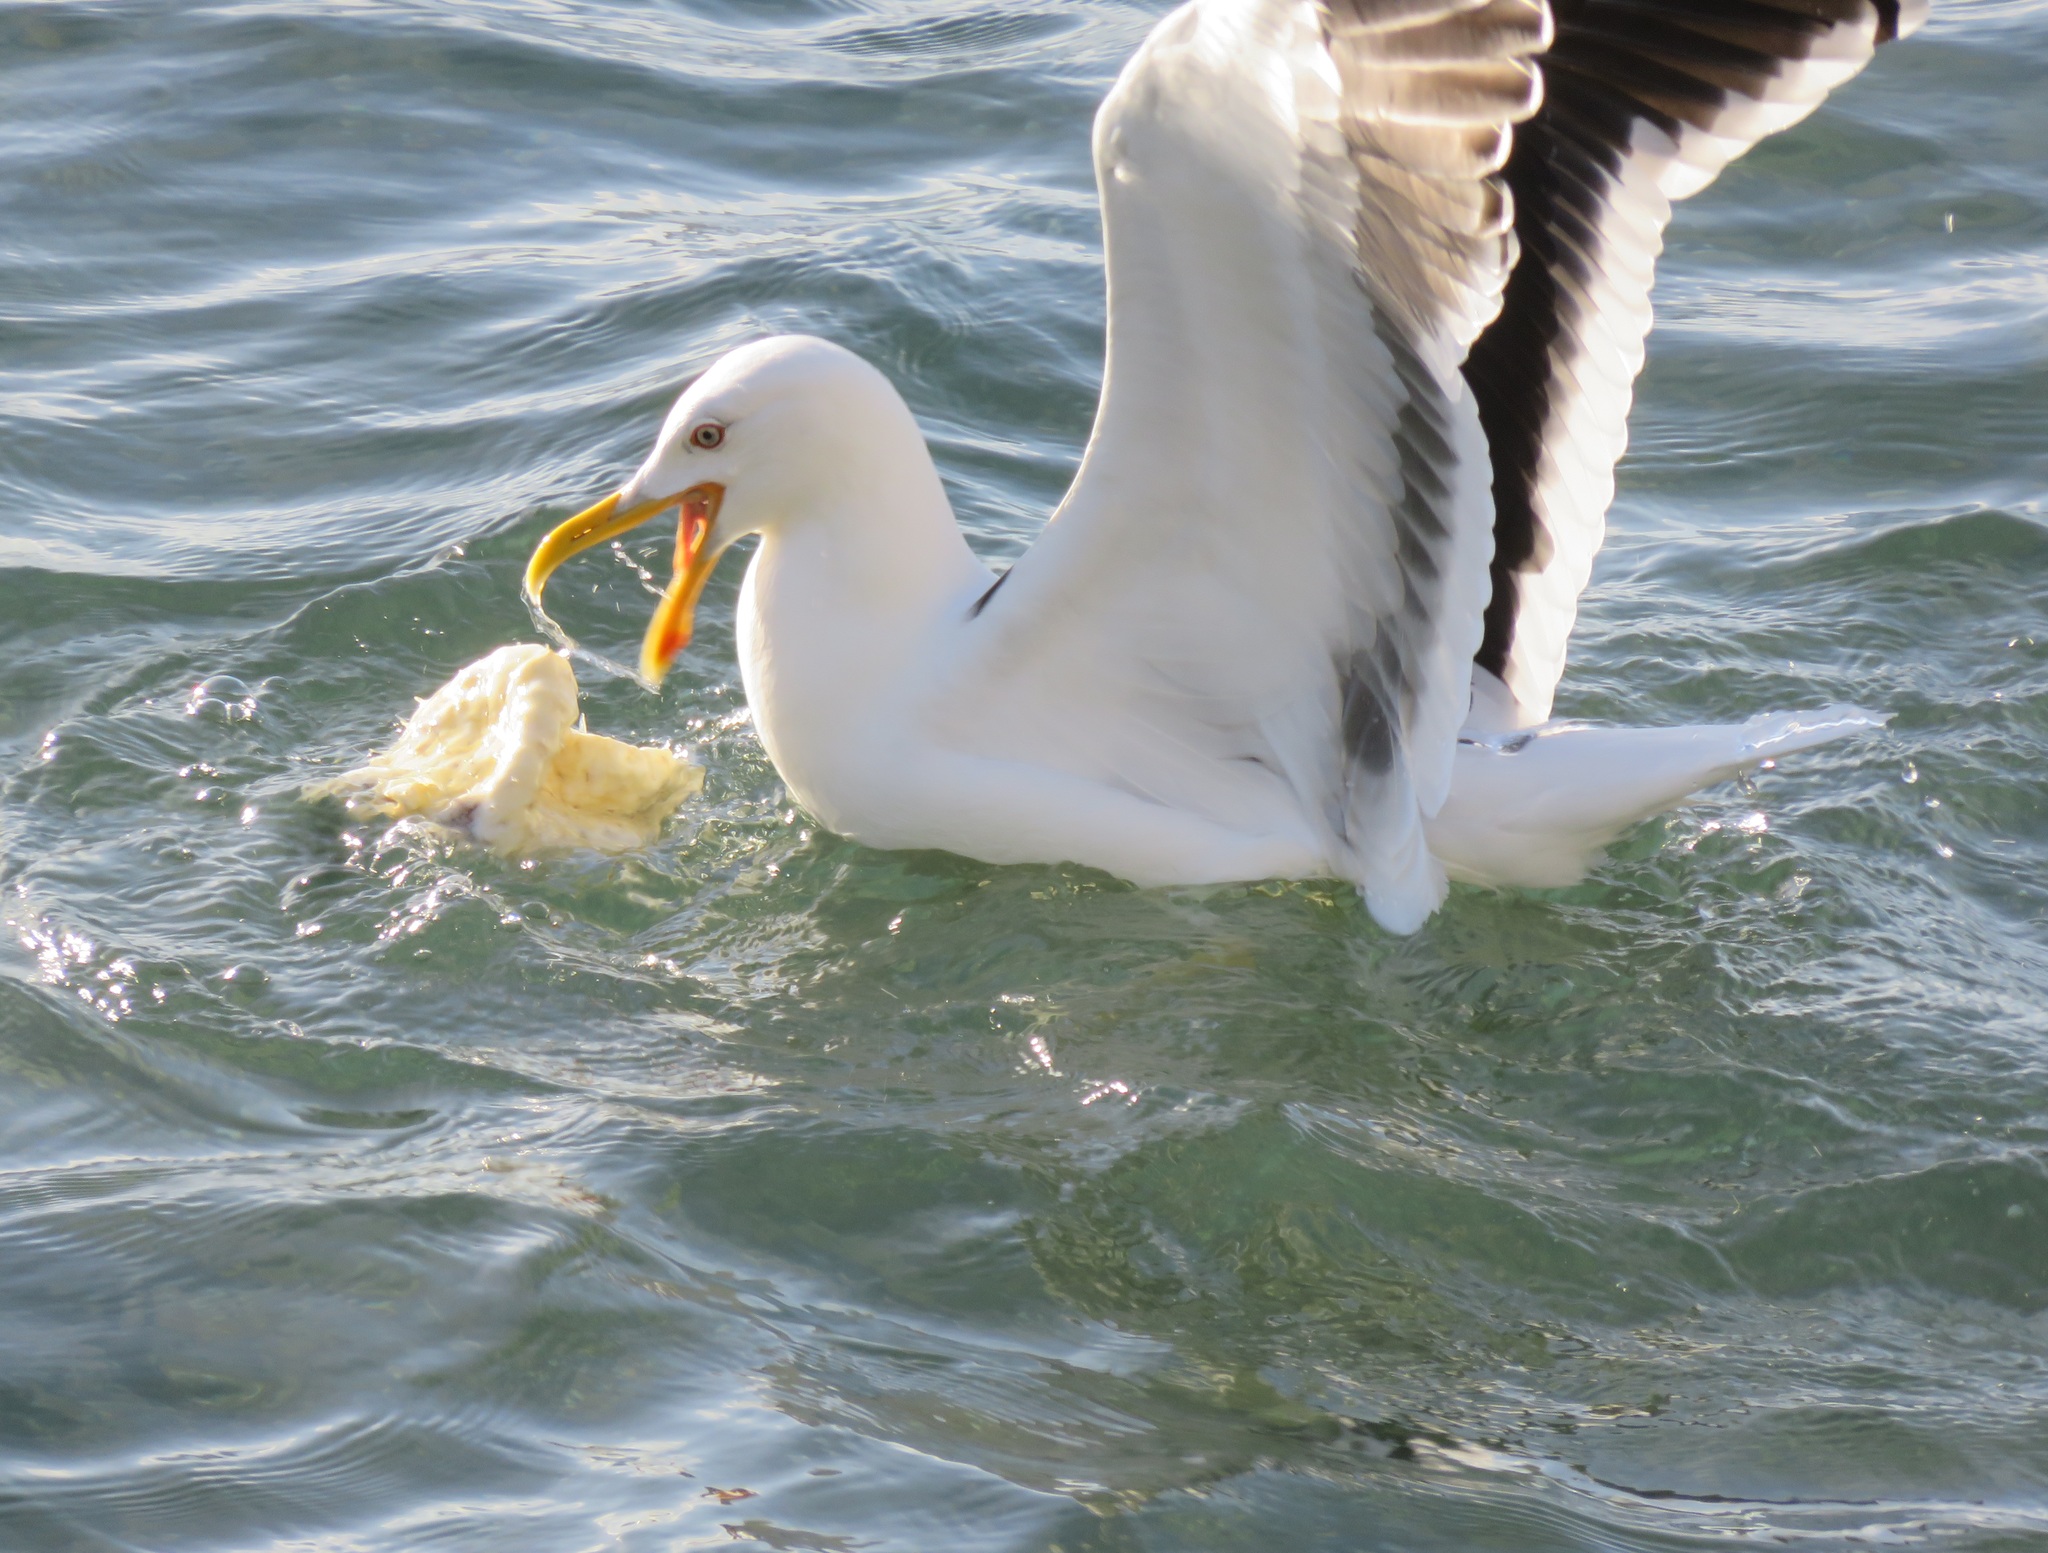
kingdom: Animalia
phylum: Chordata
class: Aves
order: Charadriiformes
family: Laridae
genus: Larus
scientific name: Larus dominicanus
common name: Kelp gull
